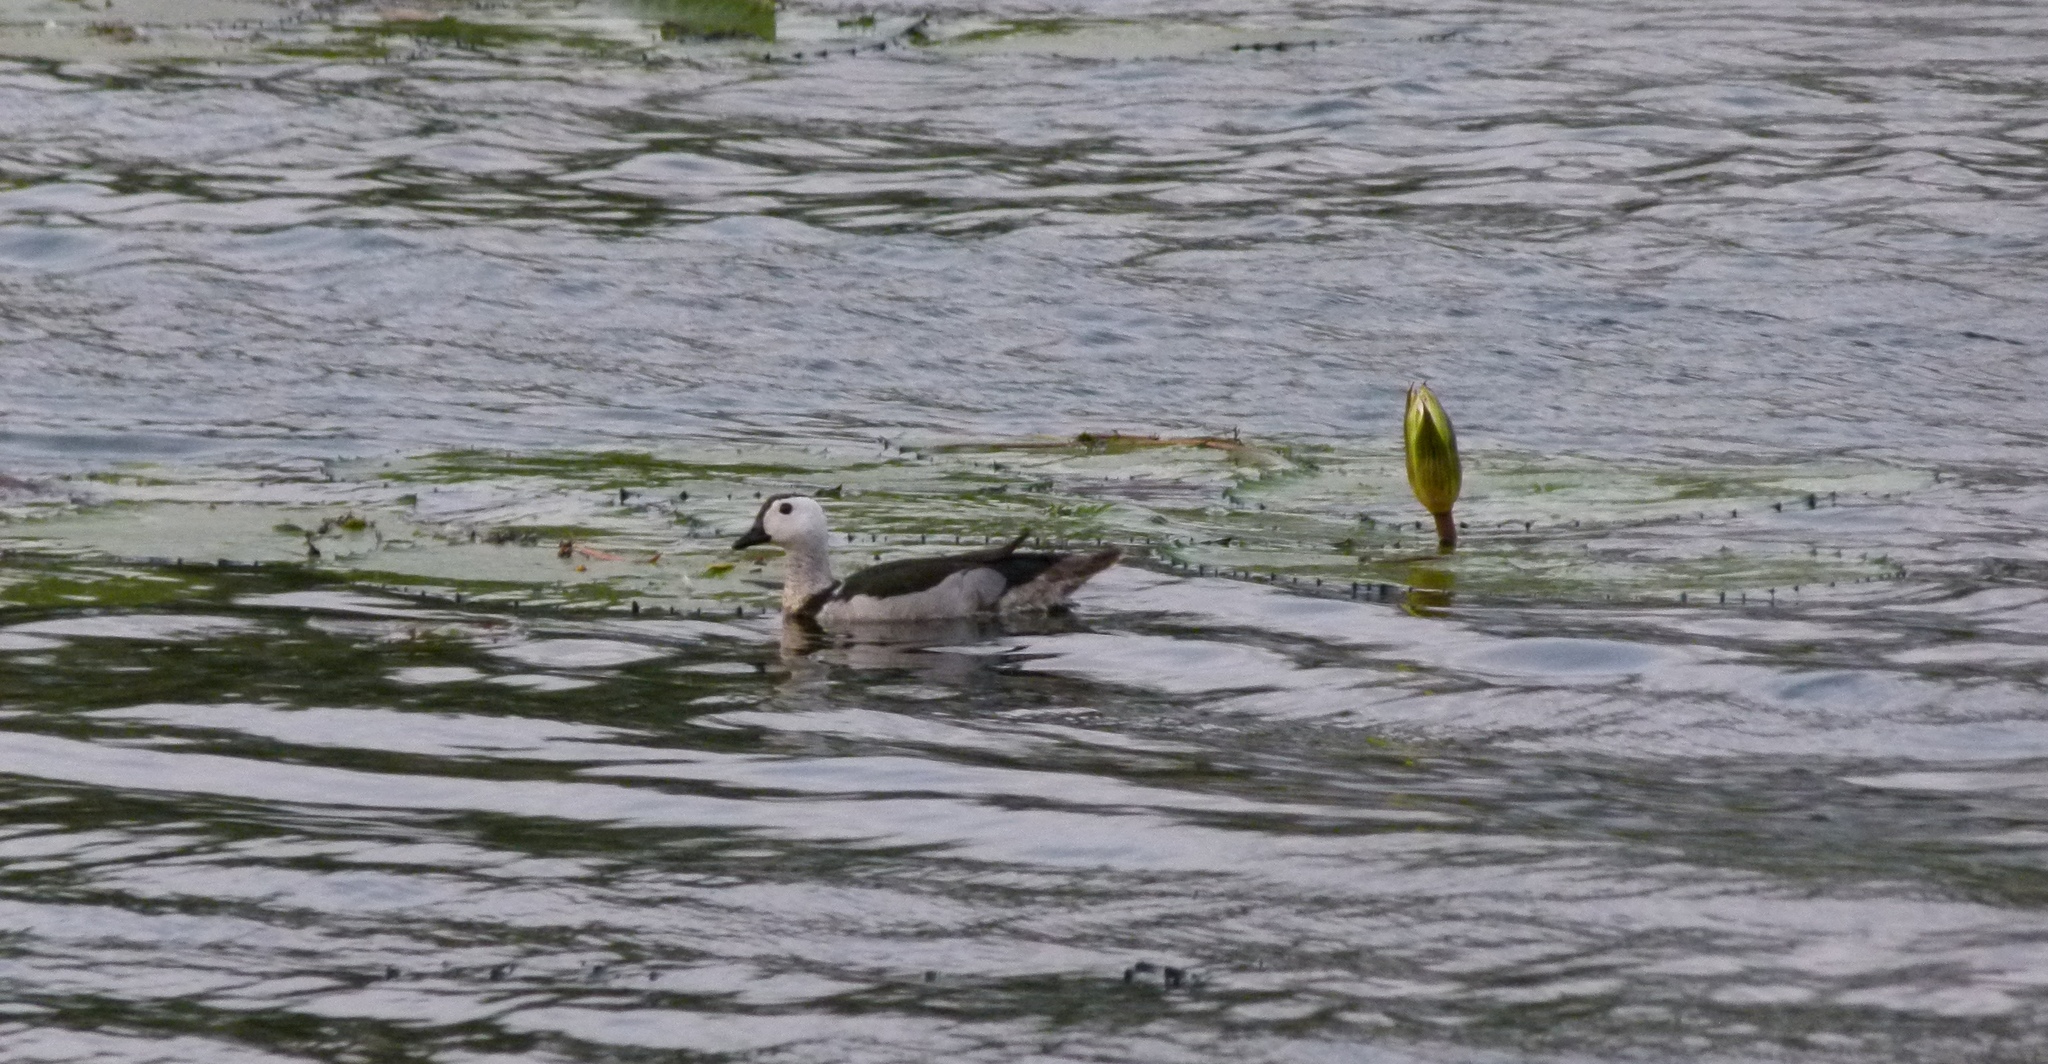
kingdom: Animalia
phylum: Chordata
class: Aves
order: Anseriformes
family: Anatidae
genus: Nettapus
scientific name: Nettapus coromandelianus
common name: Cotton pygmy-goose
